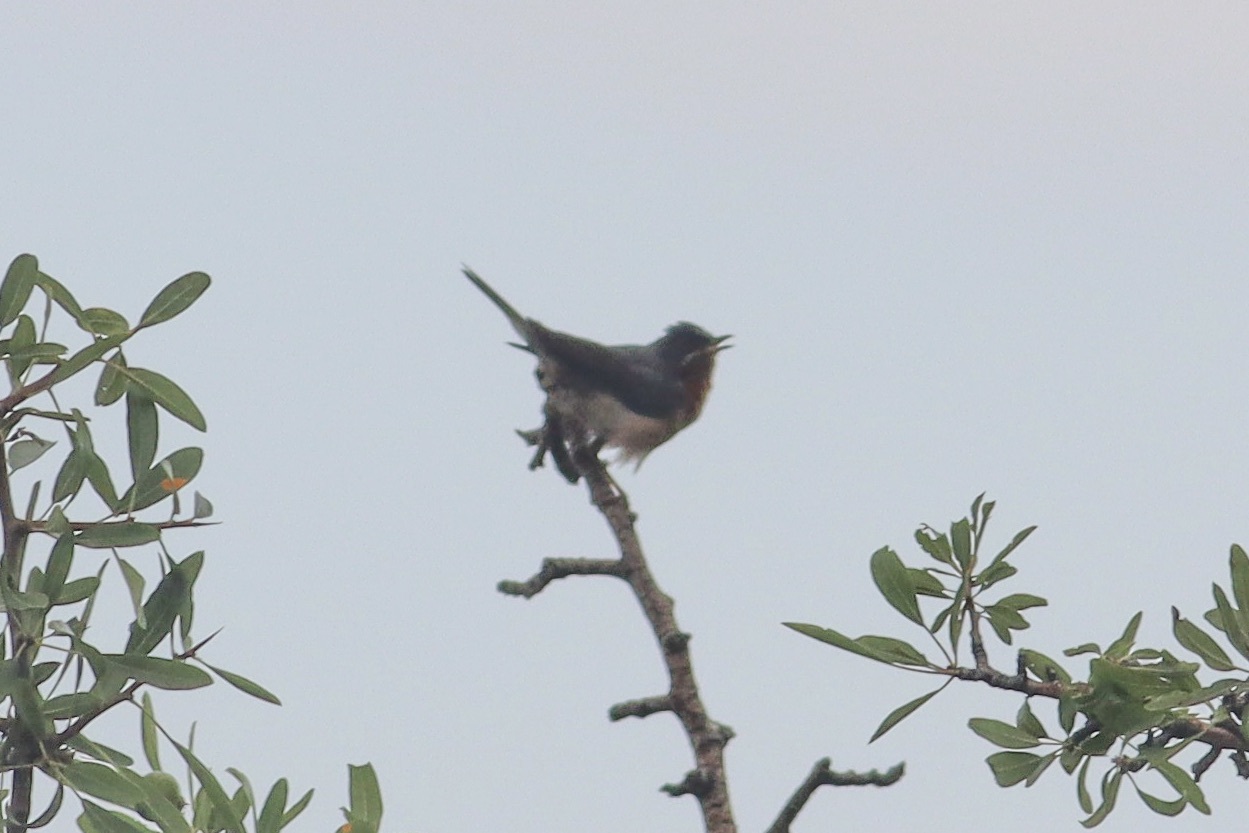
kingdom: Animalia
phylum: Chordata
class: Aves
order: Passeriformes
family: Sylviidae
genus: Curruca
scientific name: Curruca cantillans
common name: Subalpine warbler
